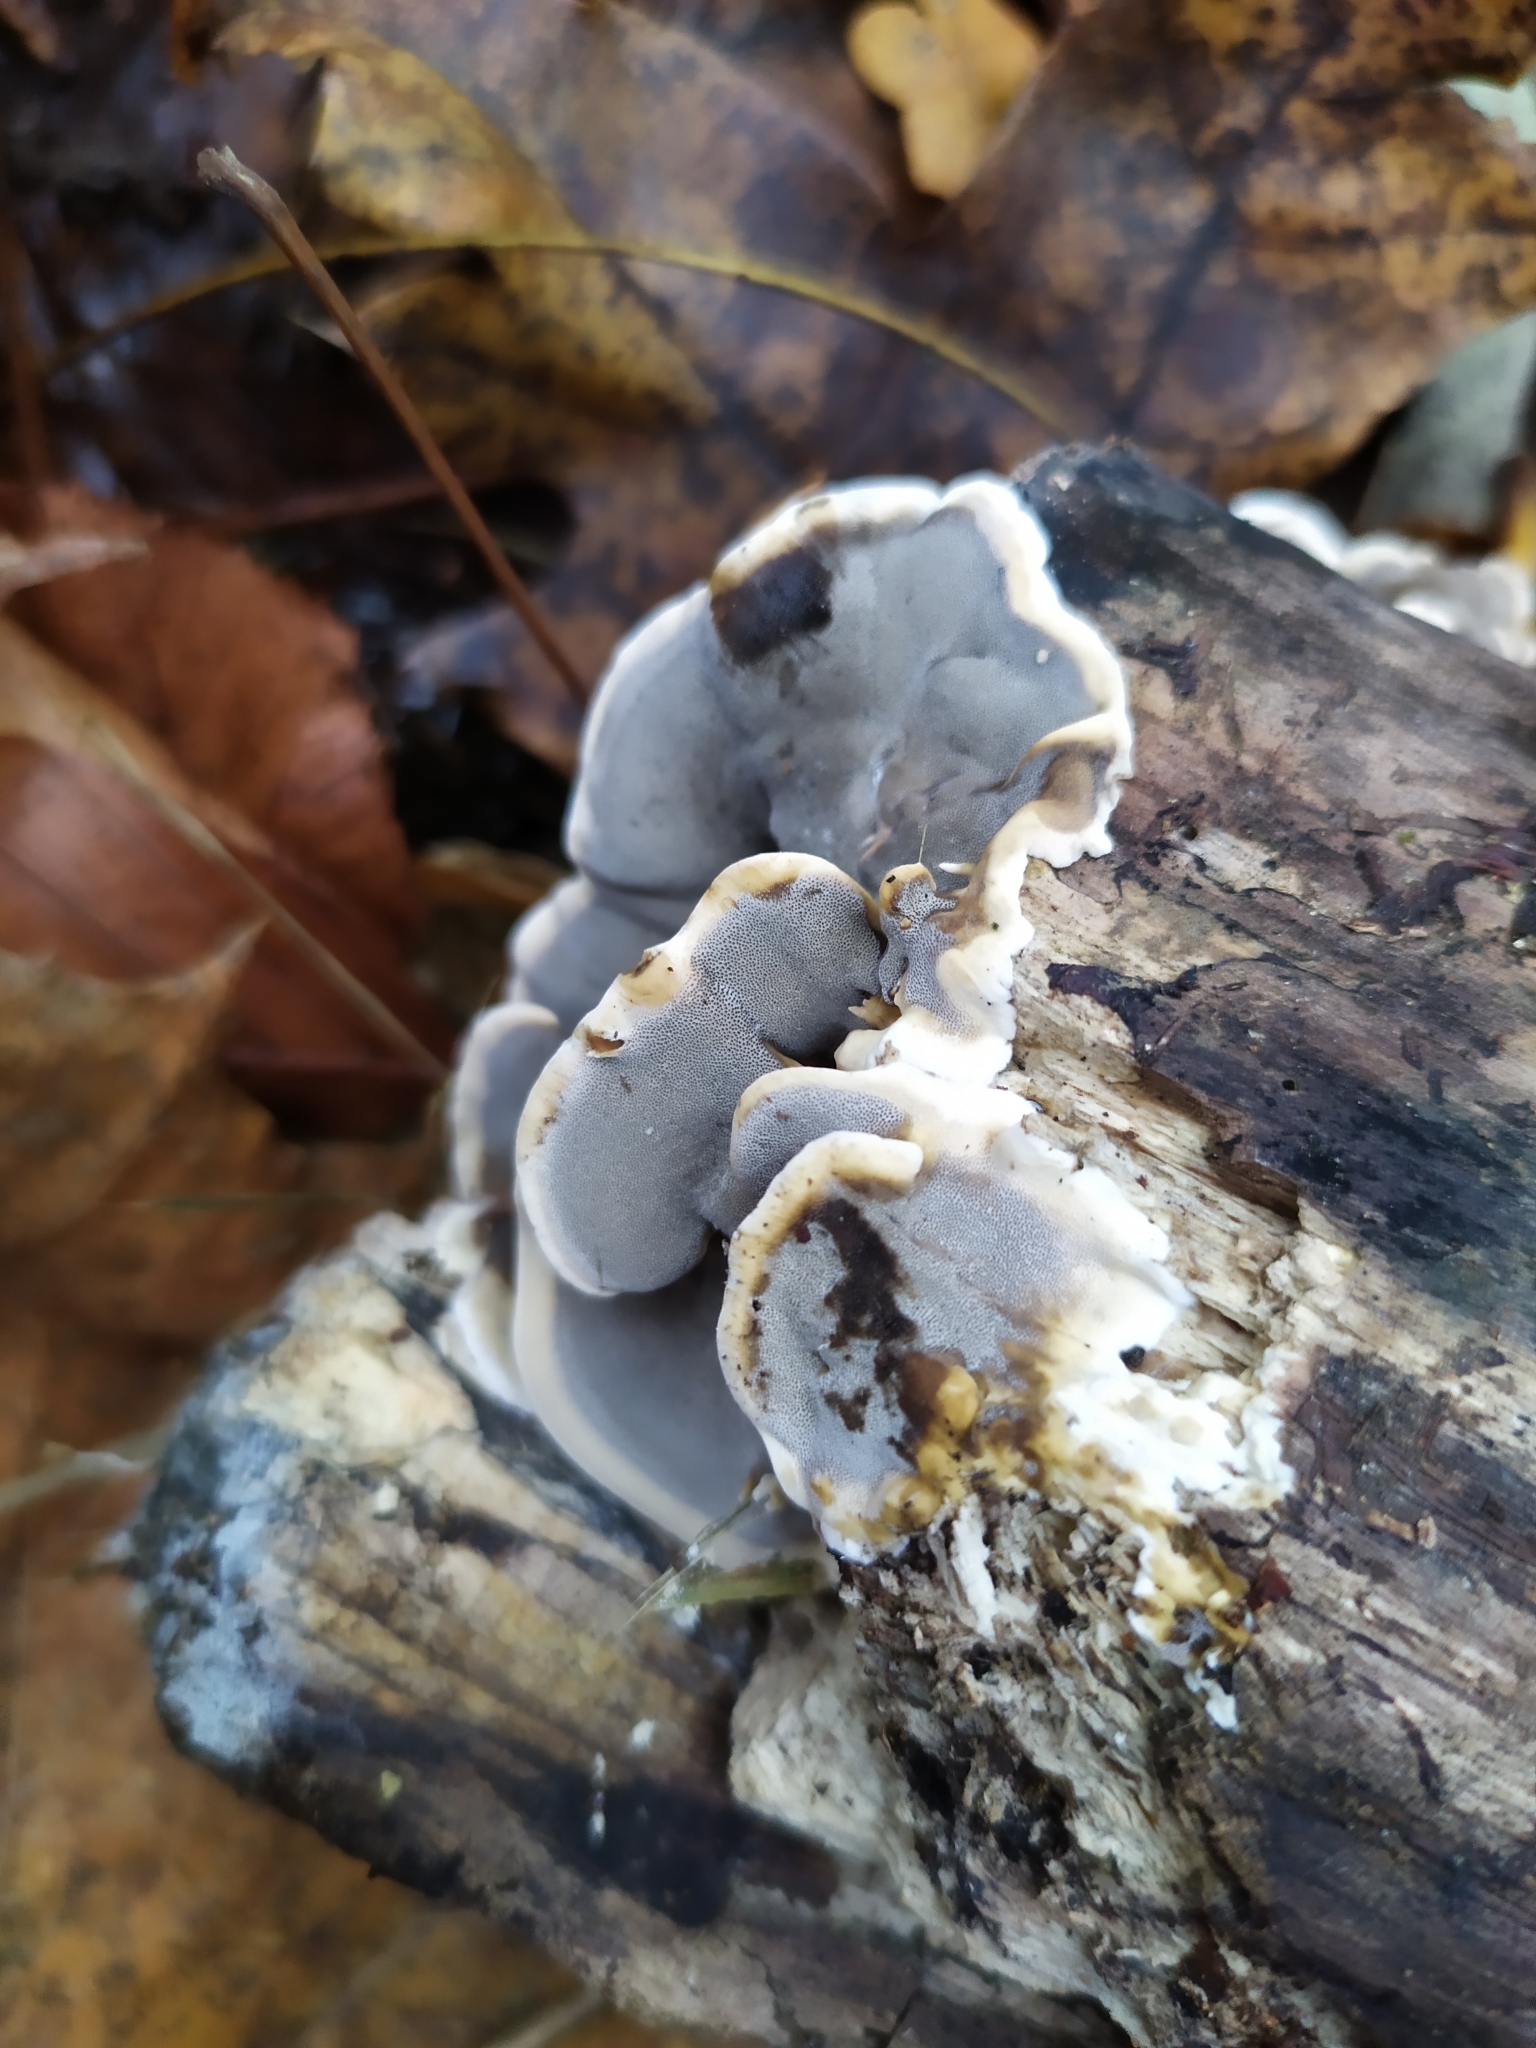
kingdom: Fungi
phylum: Basidiomycota
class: Agaricomycetes
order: Polyporales
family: Phanerochaetaceae
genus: Bjerkandera
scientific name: Bjerkandera adusta
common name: Smoky bracket
